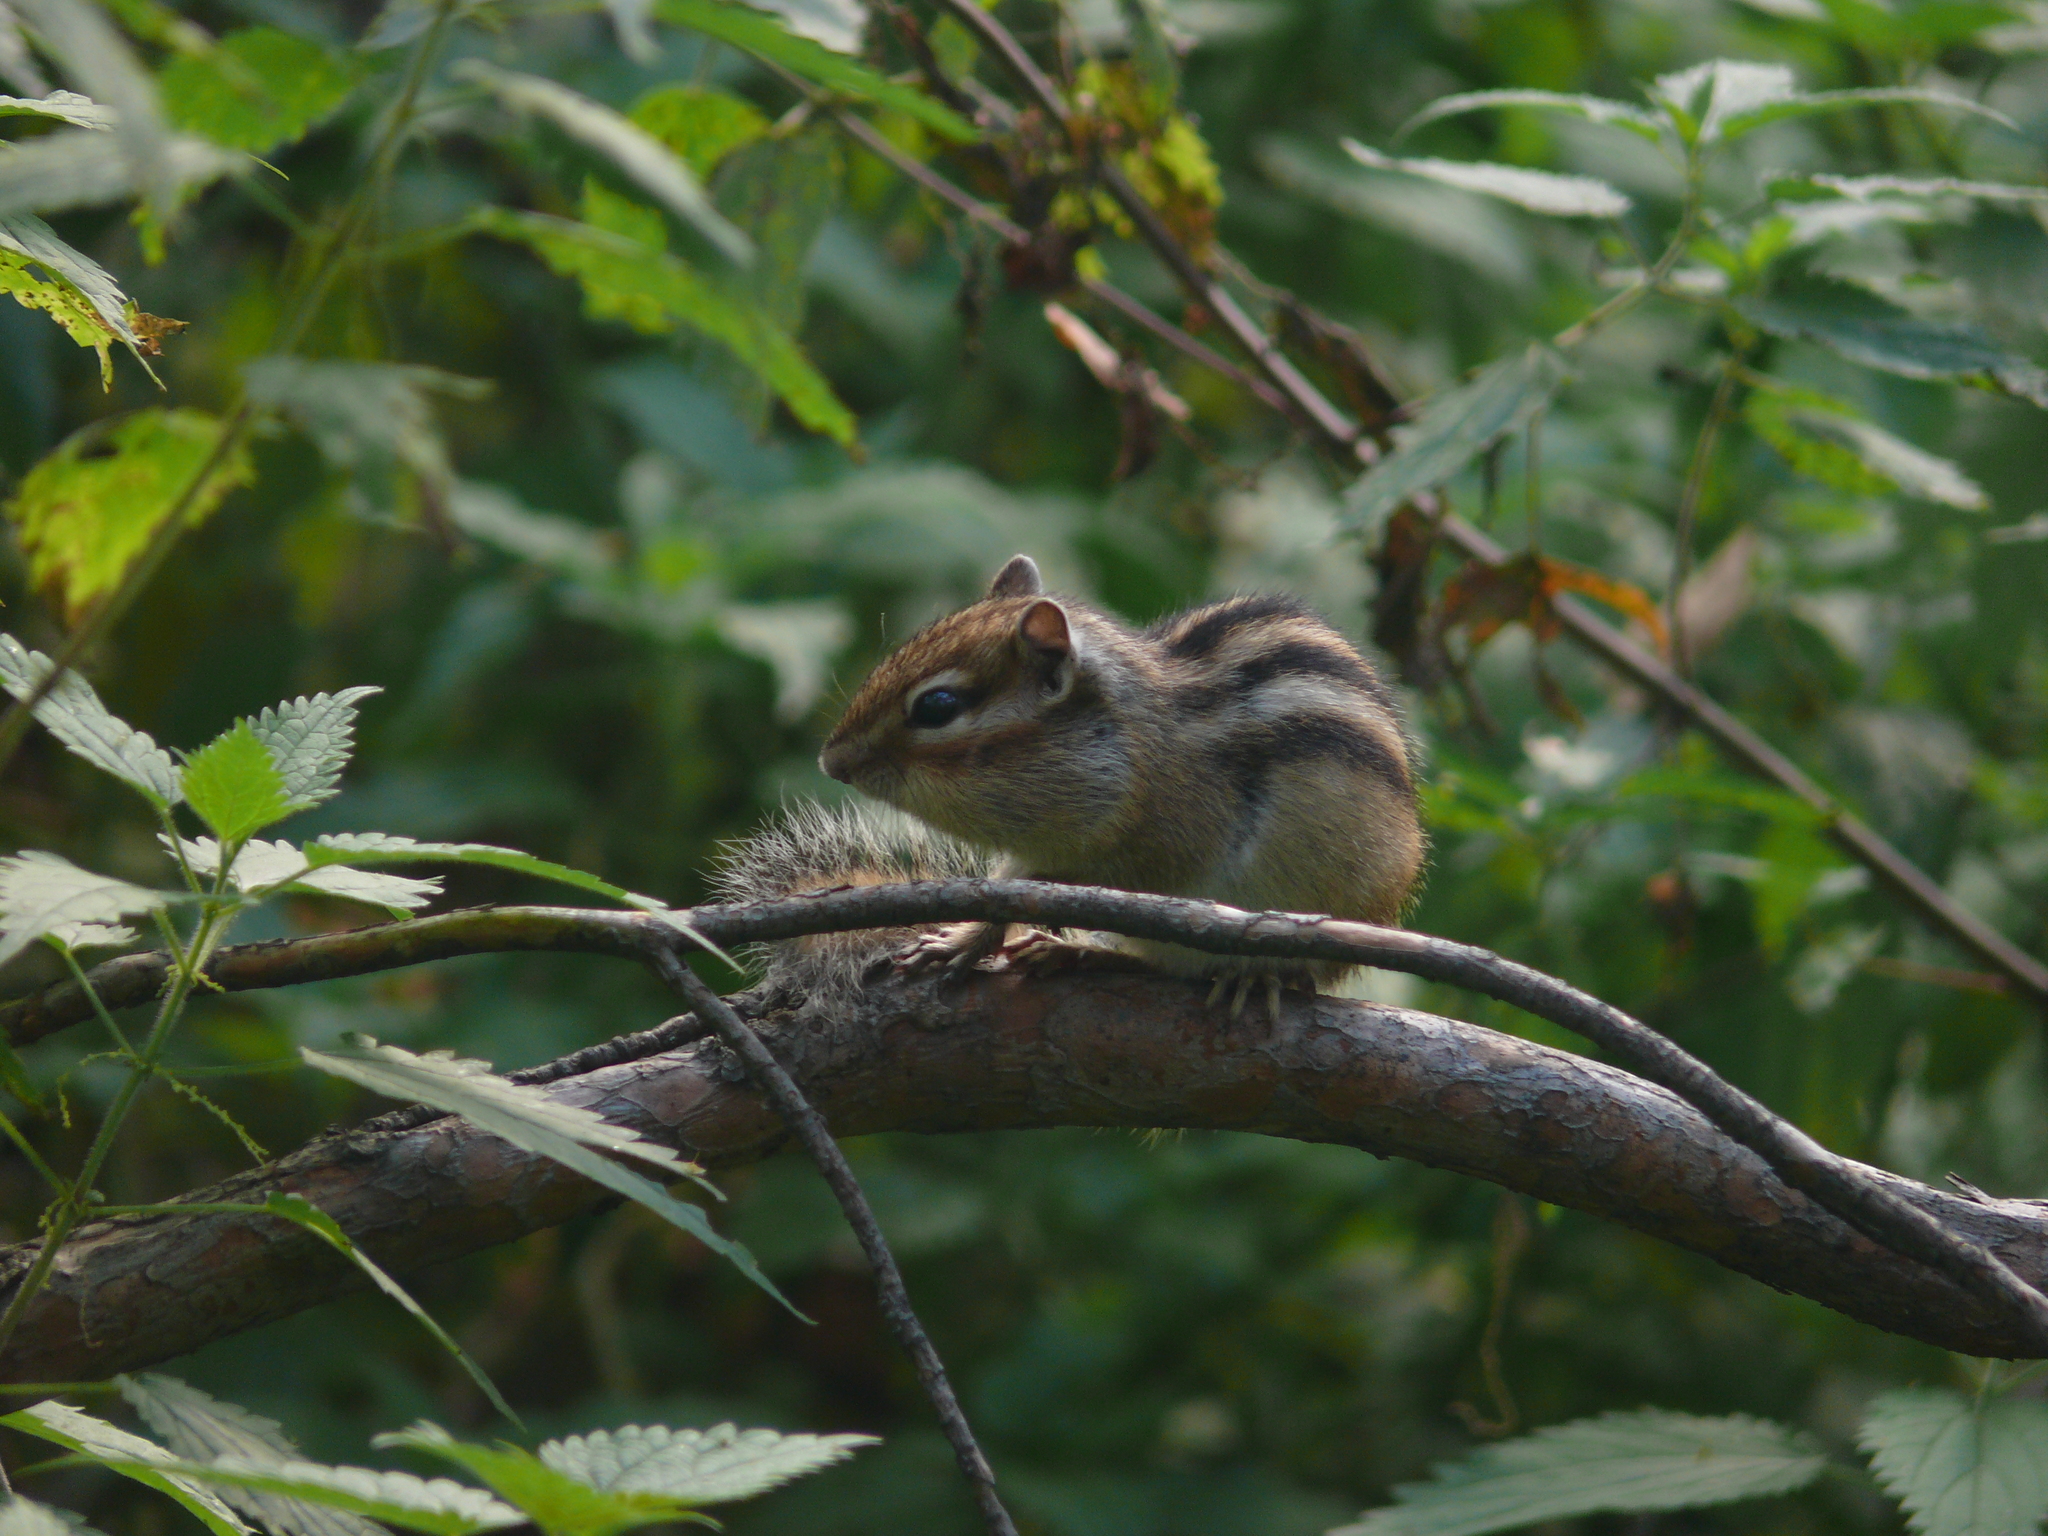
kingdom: Animalia
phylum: Chordata
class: Mammalia
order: Rodentia
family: Sciuridae
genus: Tamias
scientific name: Tamias sibiricus
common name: Siberian chipmunk
